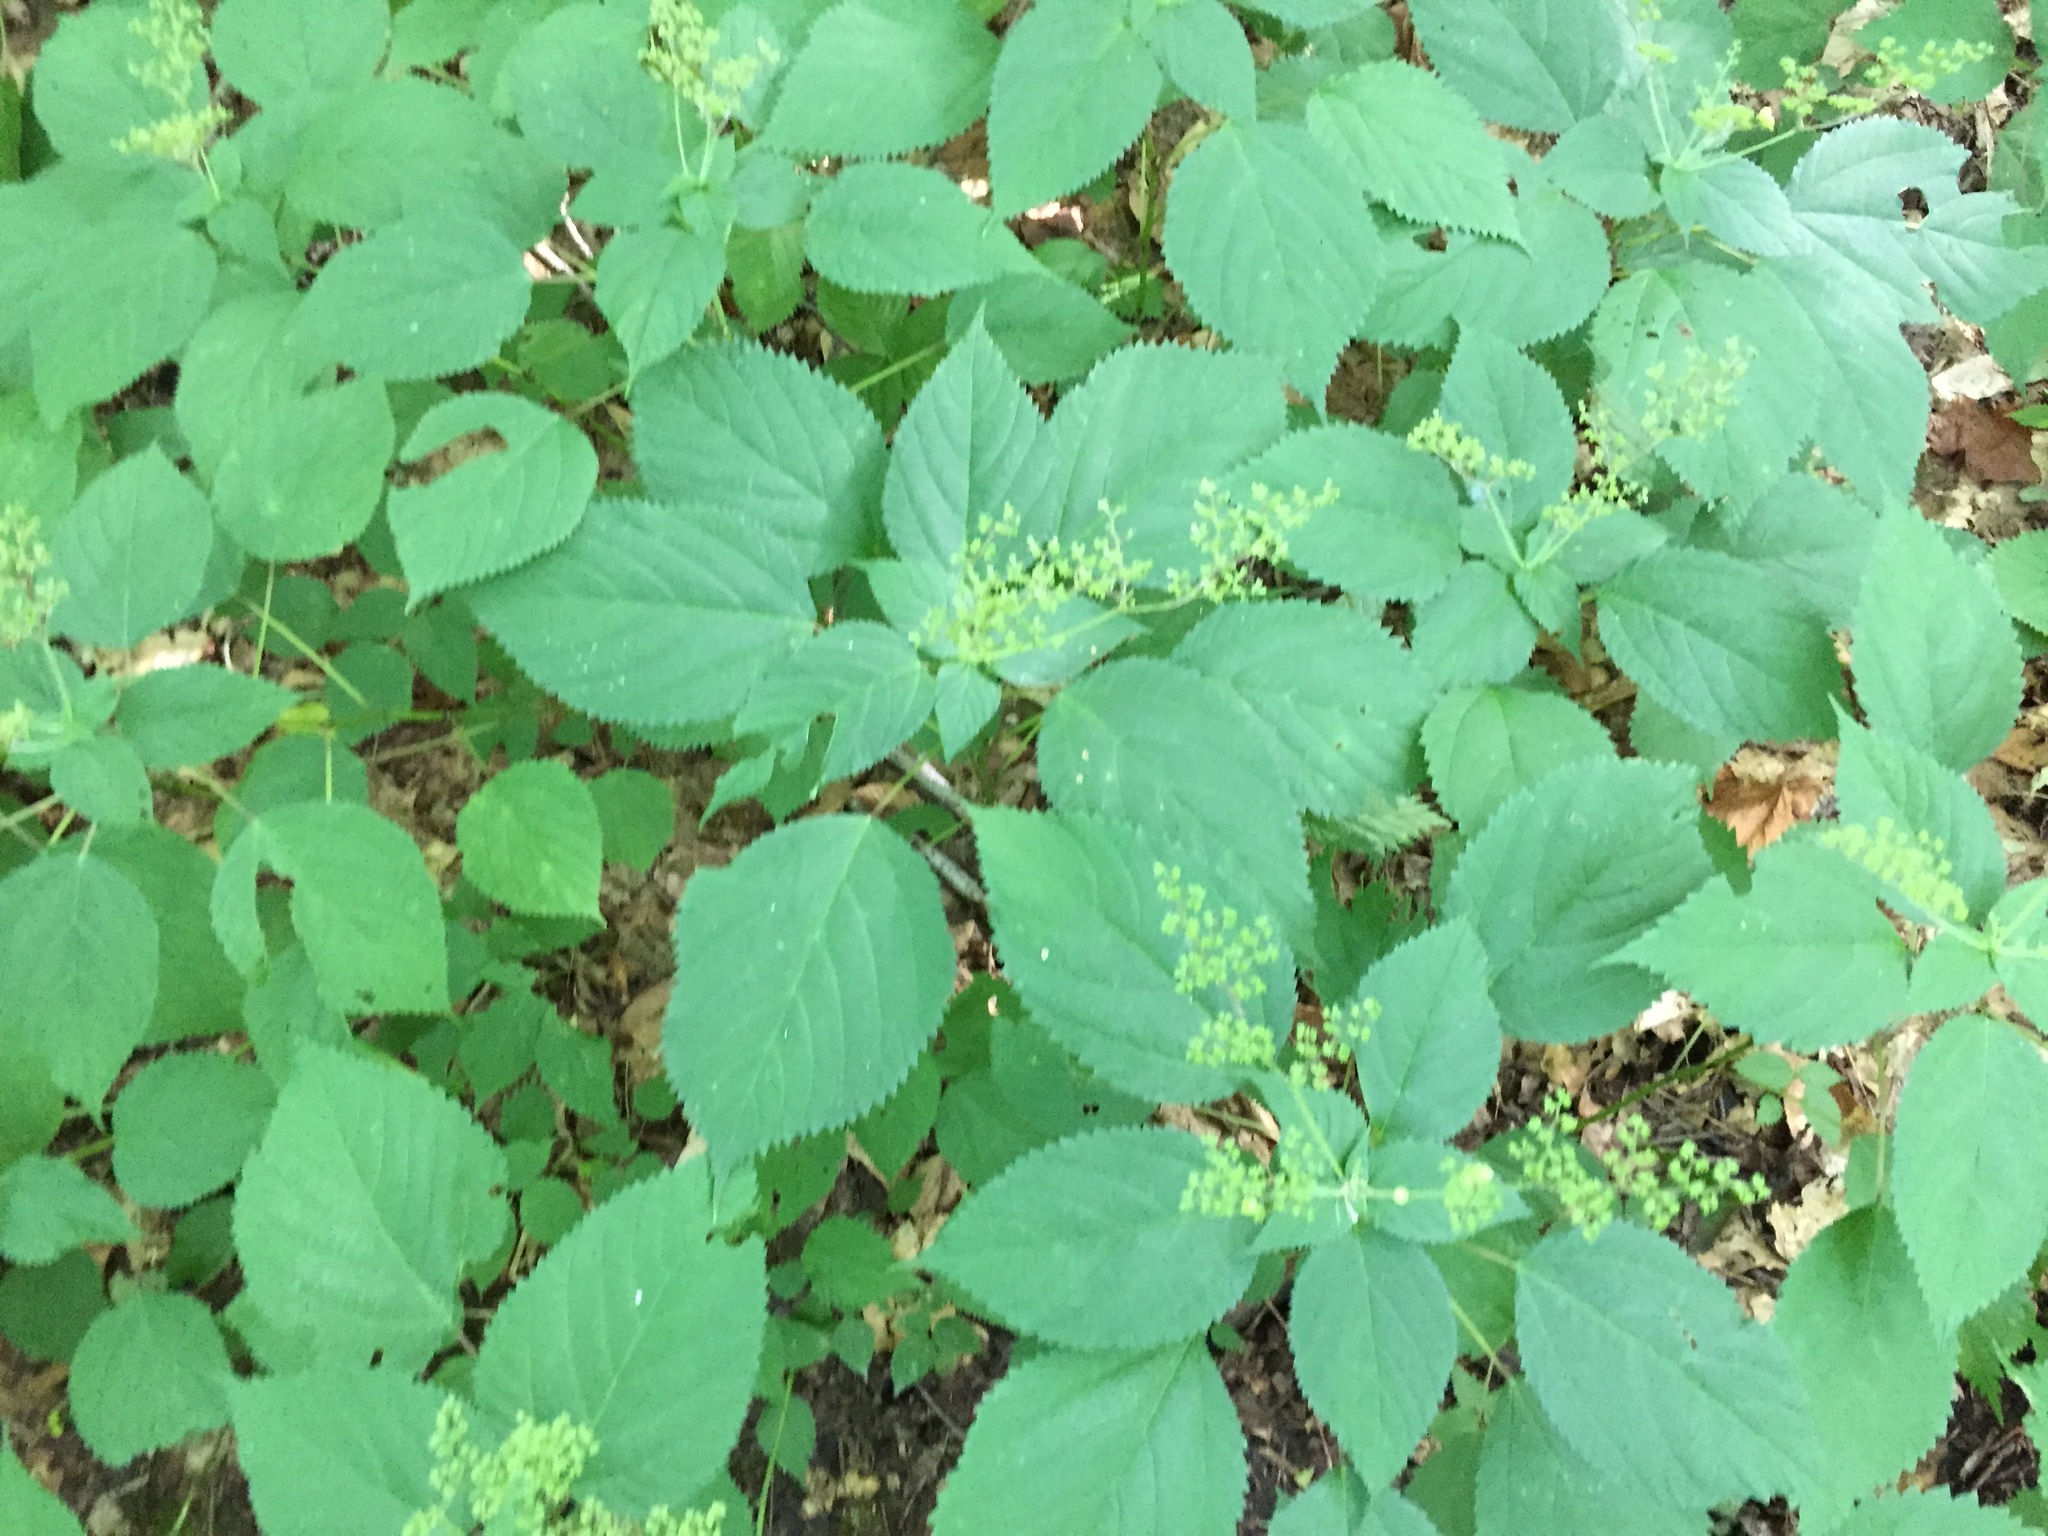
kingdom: Plantae
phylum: Tracheophyta
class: Magnoliopsida
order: Rosales
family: Urticaceae
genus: Laportea
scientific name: Laportea canadensis
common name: Canada nettle
